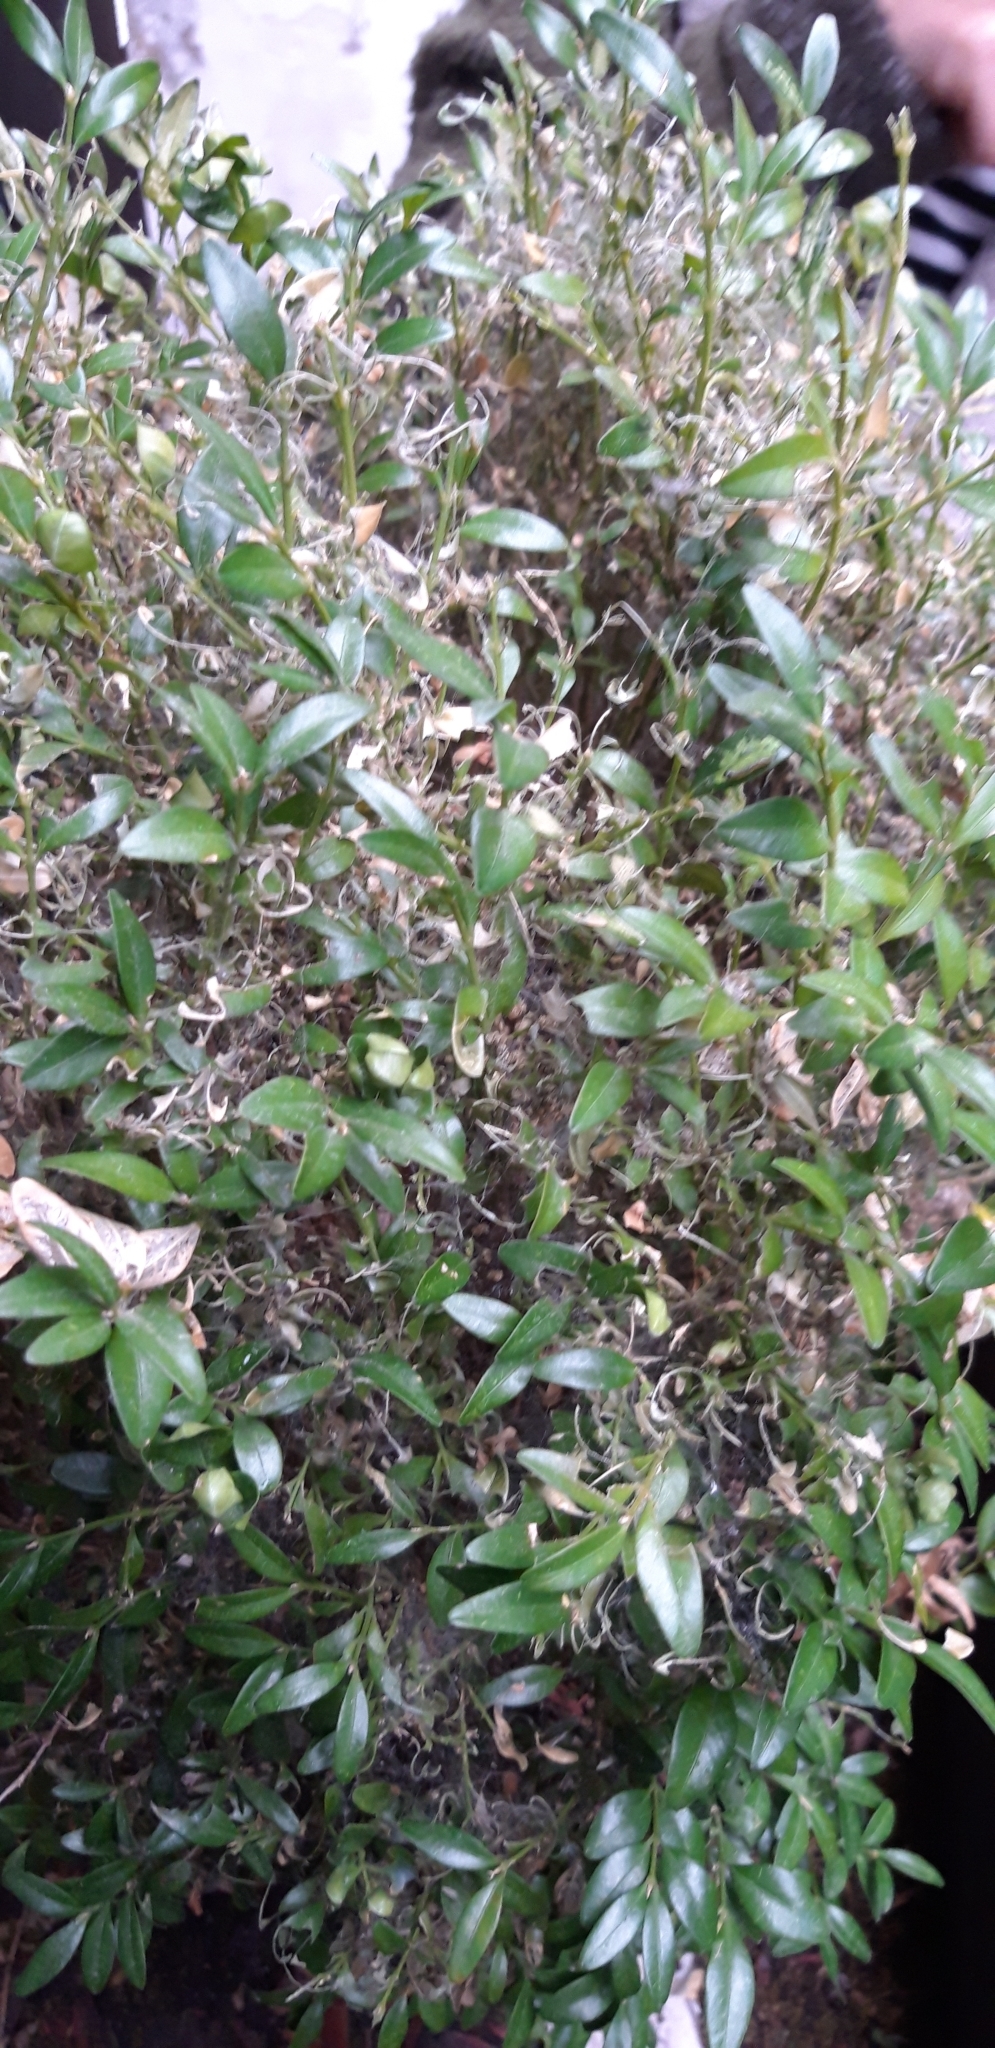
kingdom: Animalia
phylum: Arthropoda
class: Insecta
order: Lepidoptera
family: Crambidae
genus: Cydalima
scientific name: Cydalima perspectalis
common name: Box tree moth
